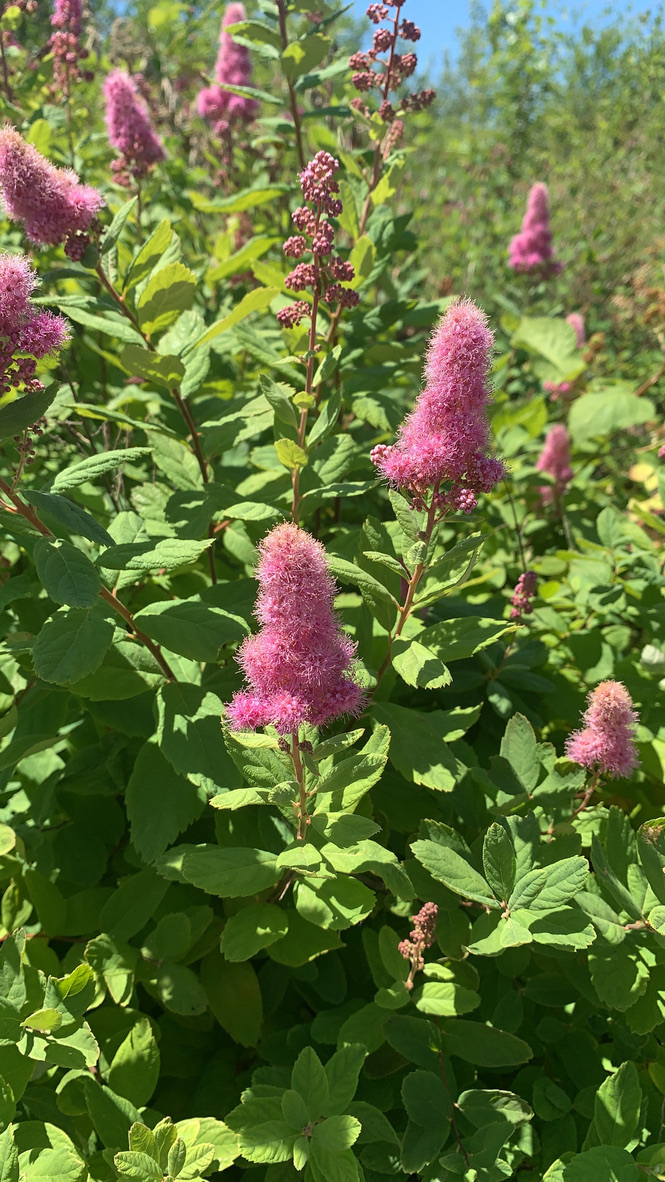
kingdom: Plantae
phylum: Tracheophyta
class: Magnoliopsida
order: Rosales
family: Rosaceae
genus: Spiraea
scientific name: Spiraea douglasii
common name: Steeplebush
